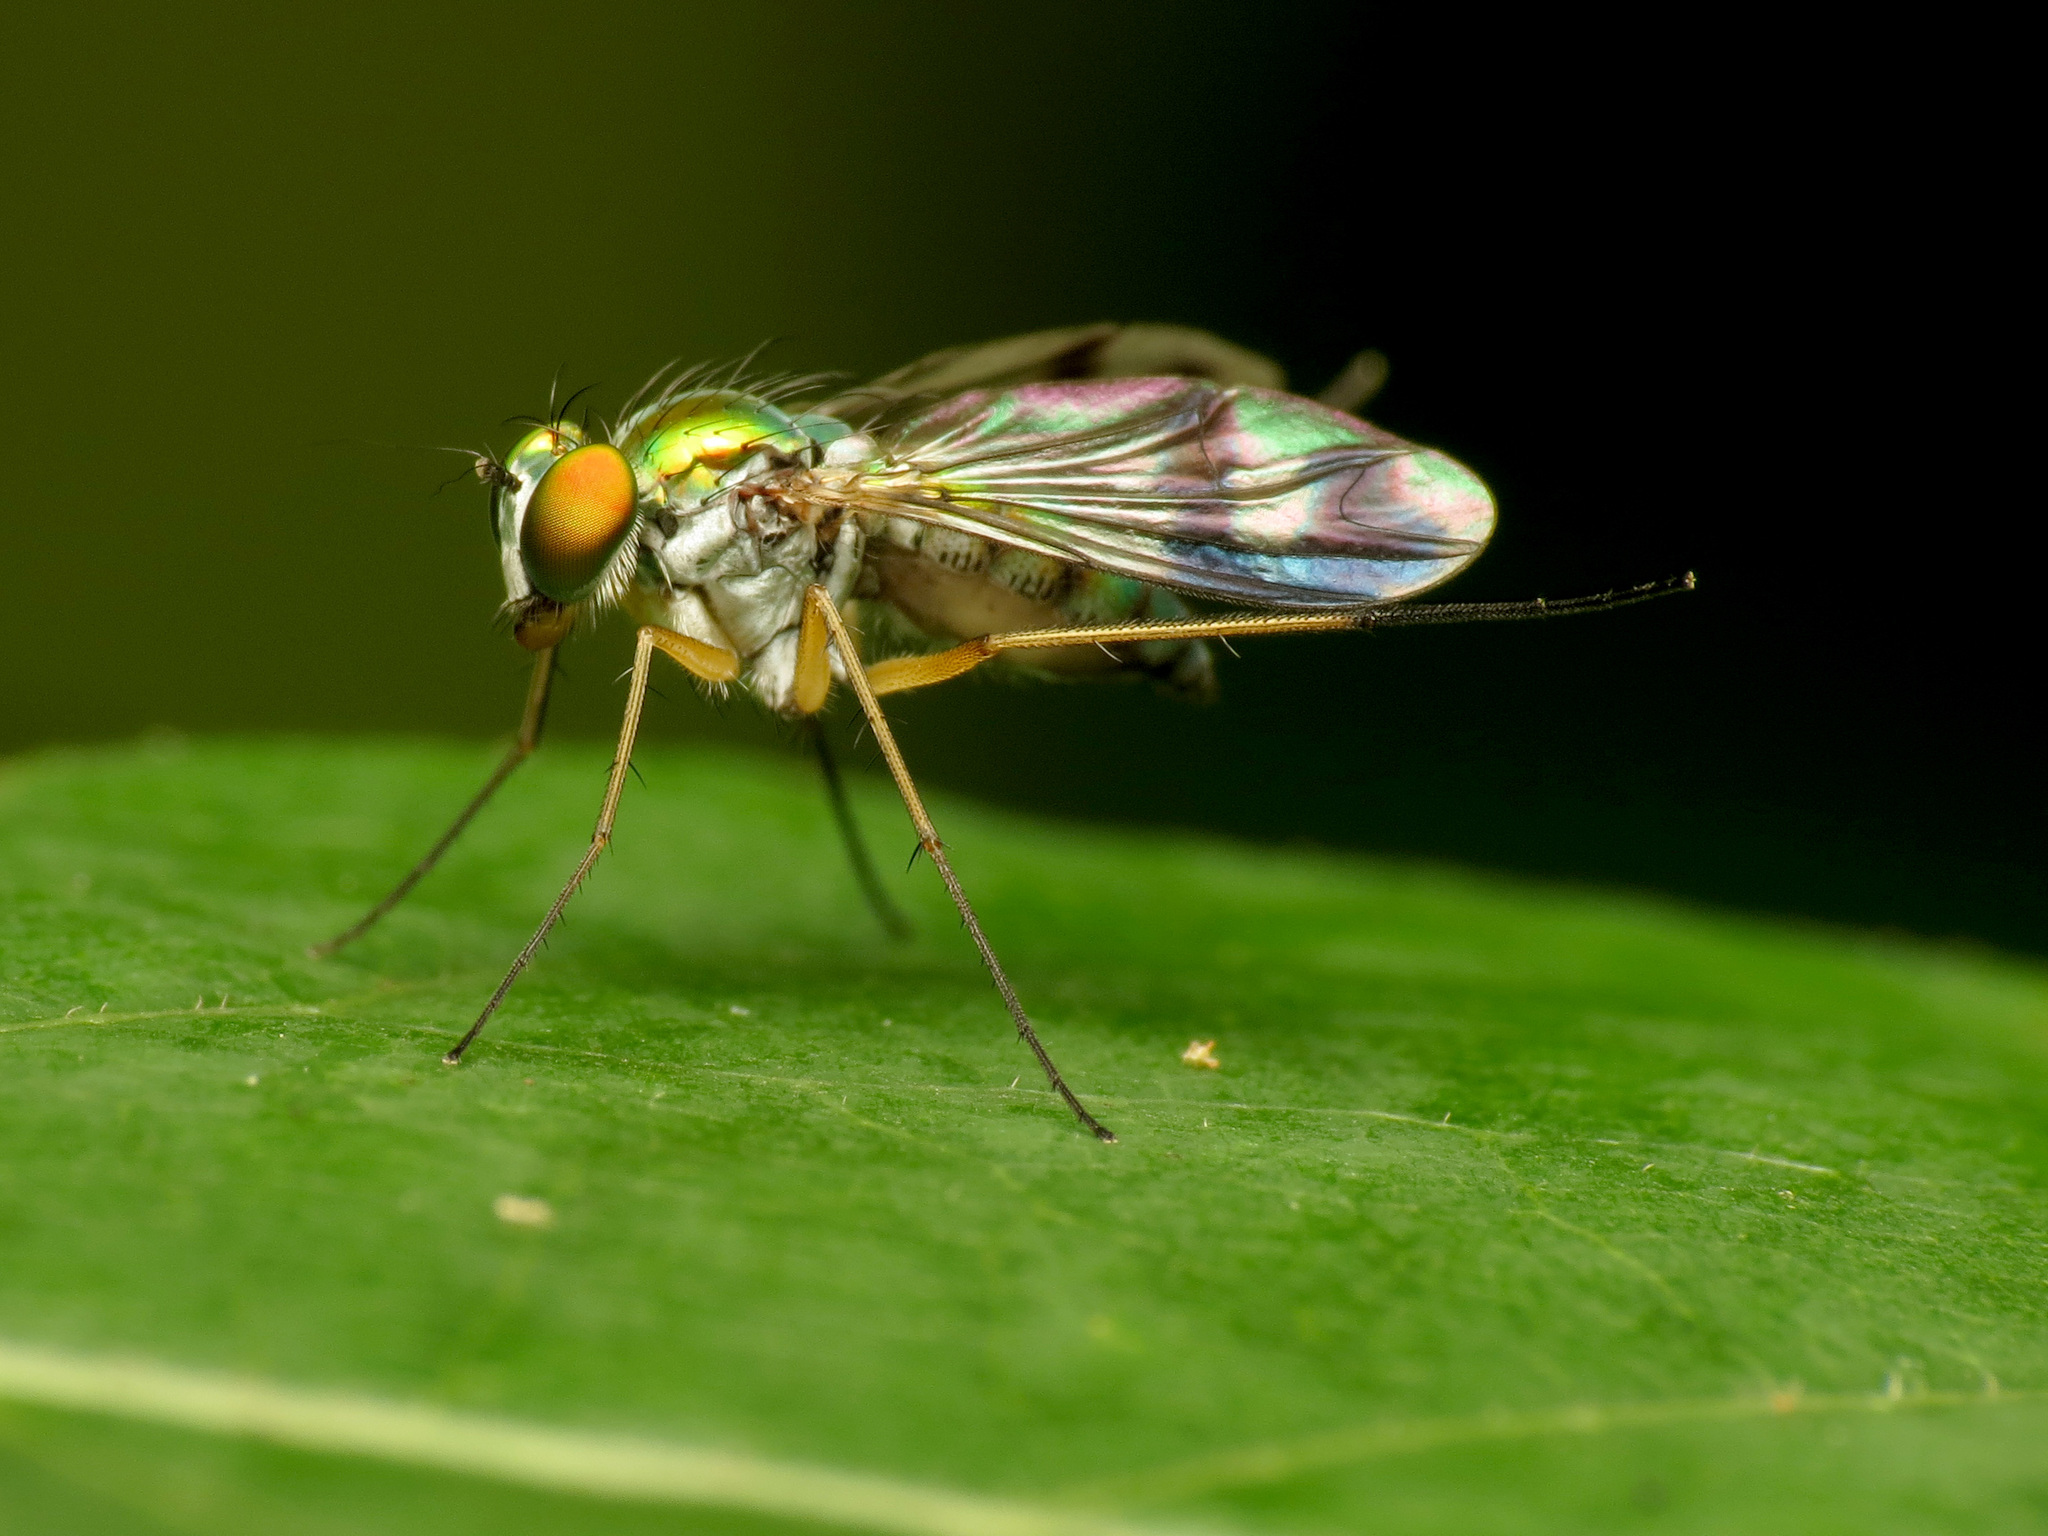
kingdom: Animalia
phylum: Arthropoda
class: Insecta
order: Diptera
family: Dolichopodidae
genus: Condylostylus
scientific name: Condylostylus
